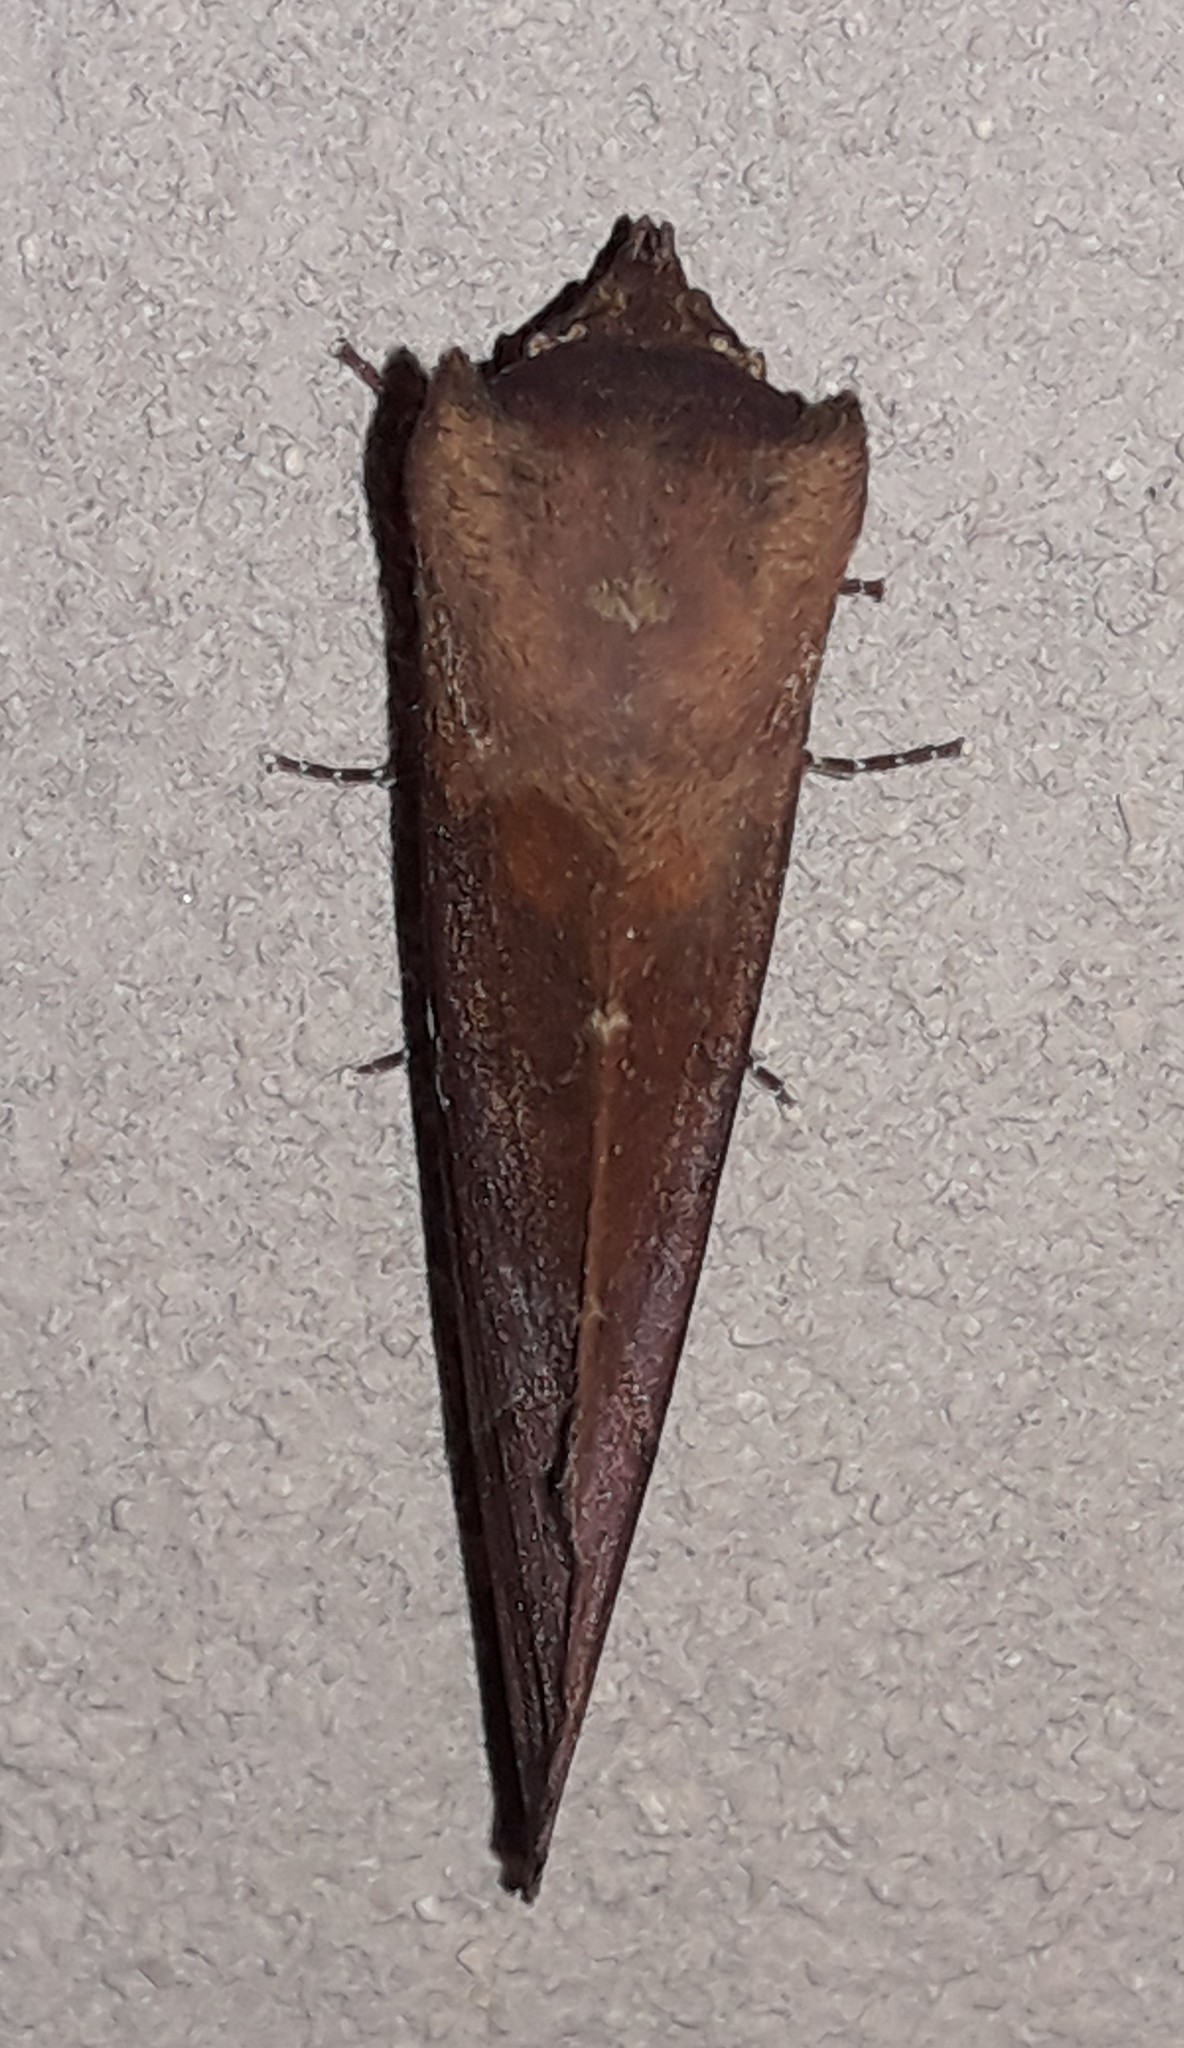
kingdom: Animalia
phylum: Arthropoda
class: Insecta
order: Lepidoptera
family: Notodontidae
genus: Hapigia
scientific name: Hapigia simplex
